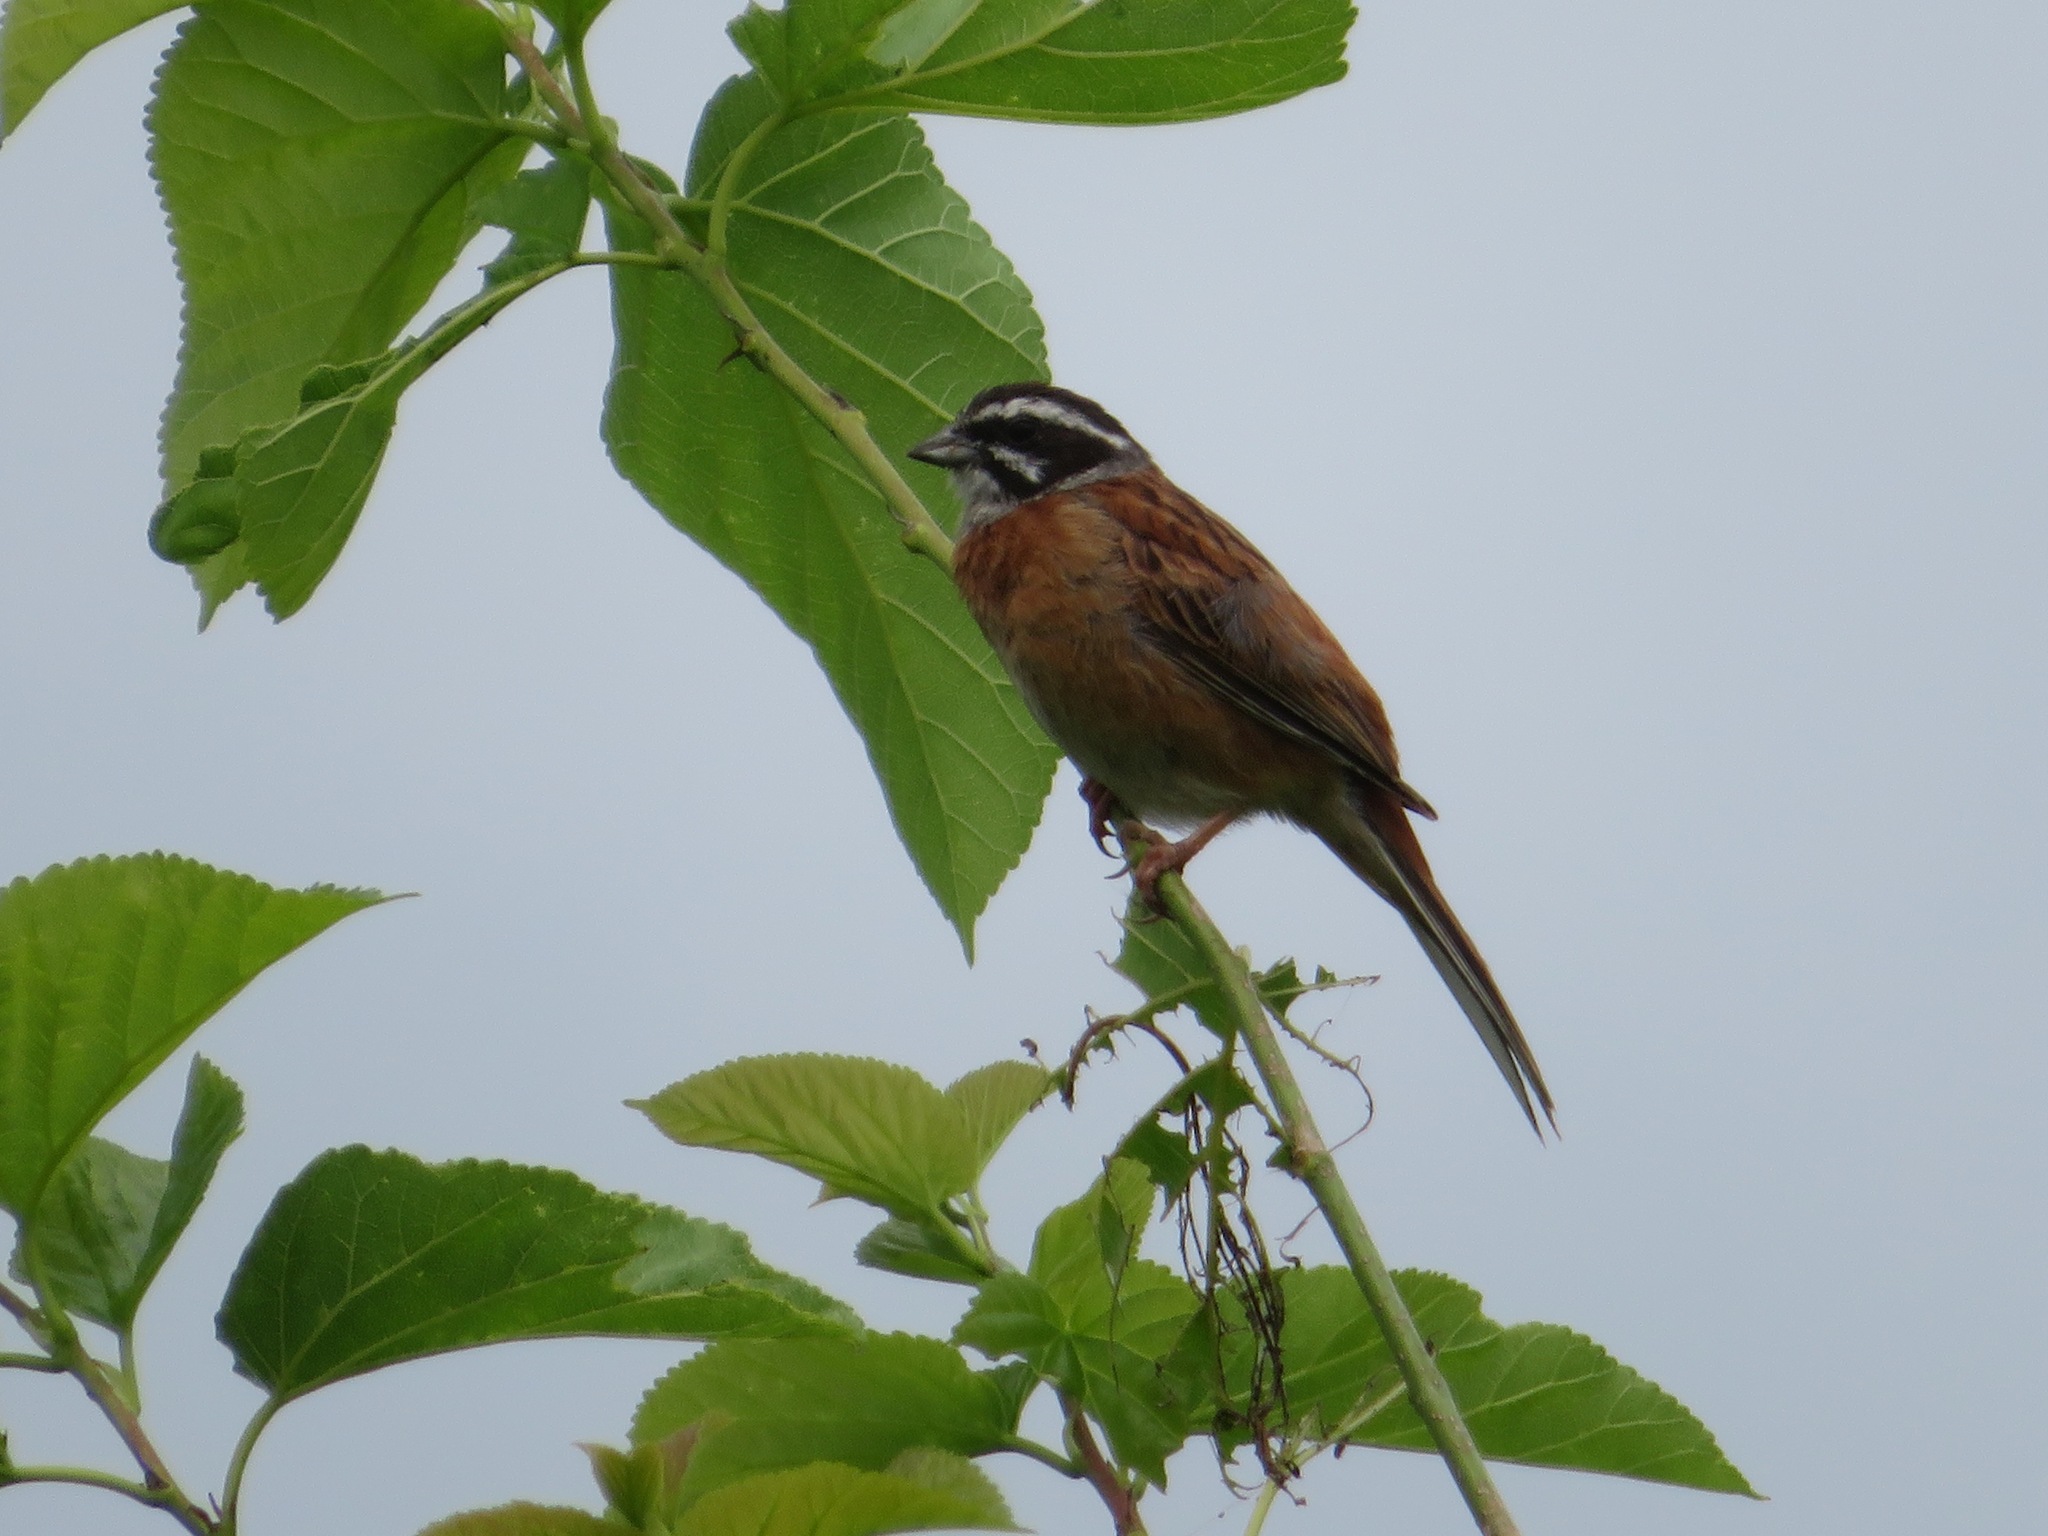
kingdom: Animalia
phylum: Chordata
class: Aves
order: Passeriformes
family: Emberizidae
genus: Emberiza
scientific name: Emberiza cioides
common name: Meadow bunting
